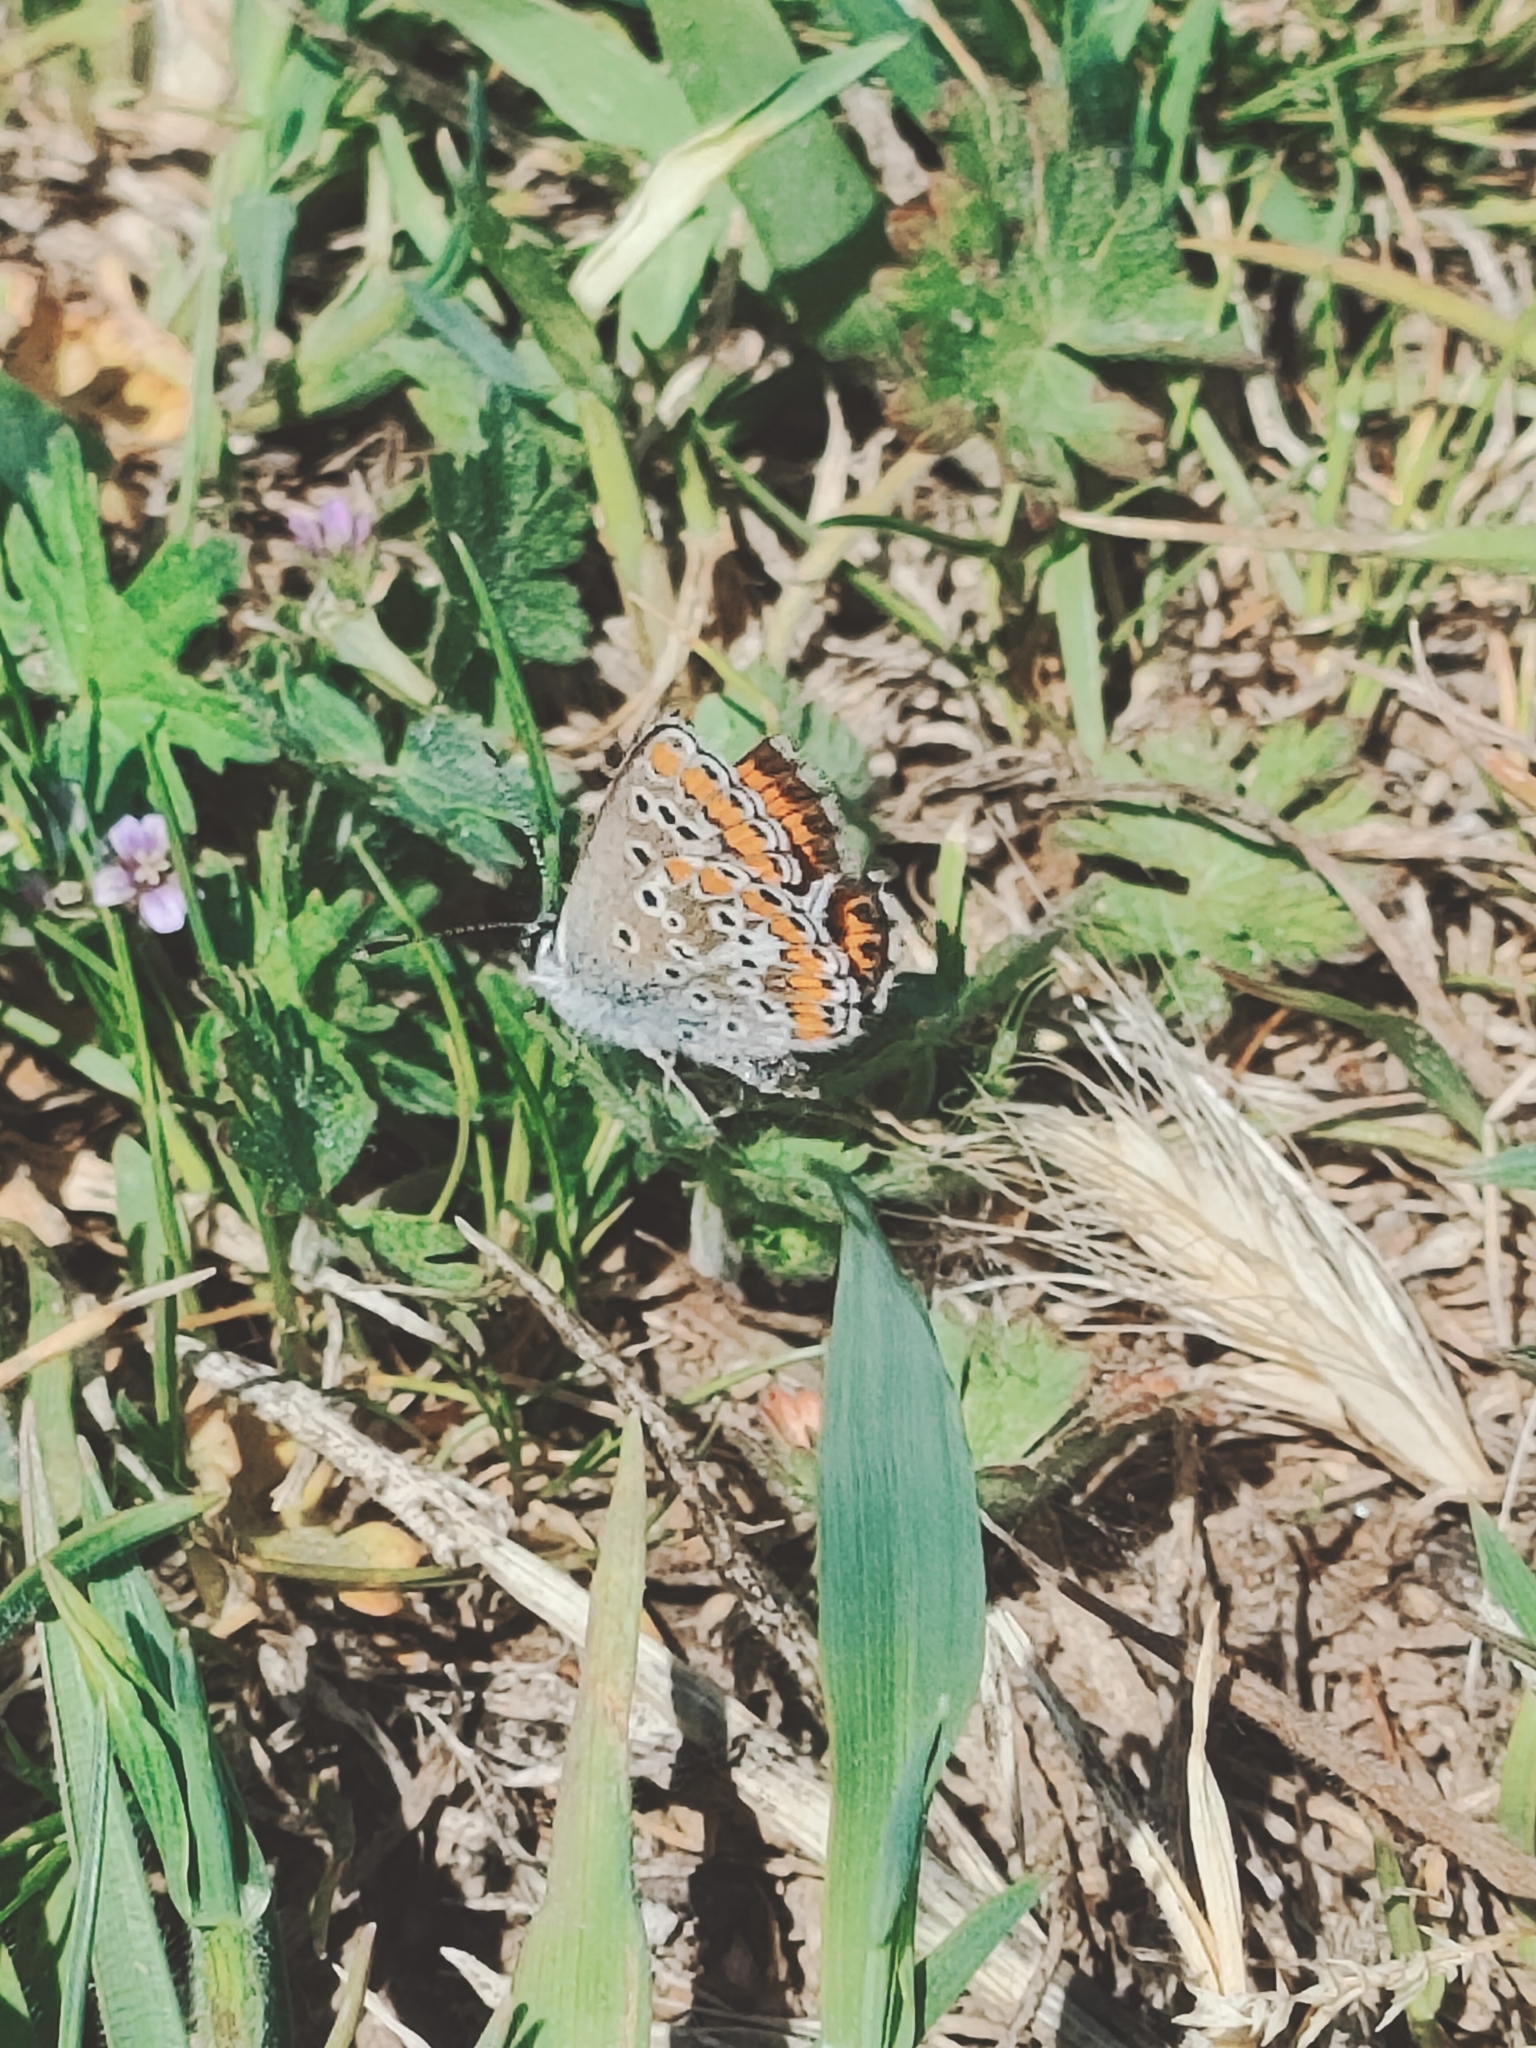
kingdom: Animalia
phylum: Arthropoda
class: Insecta
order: Lepidoptera
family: Lycaenidae
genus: Aricia
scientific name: Aricia agestis
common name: Brown argus
